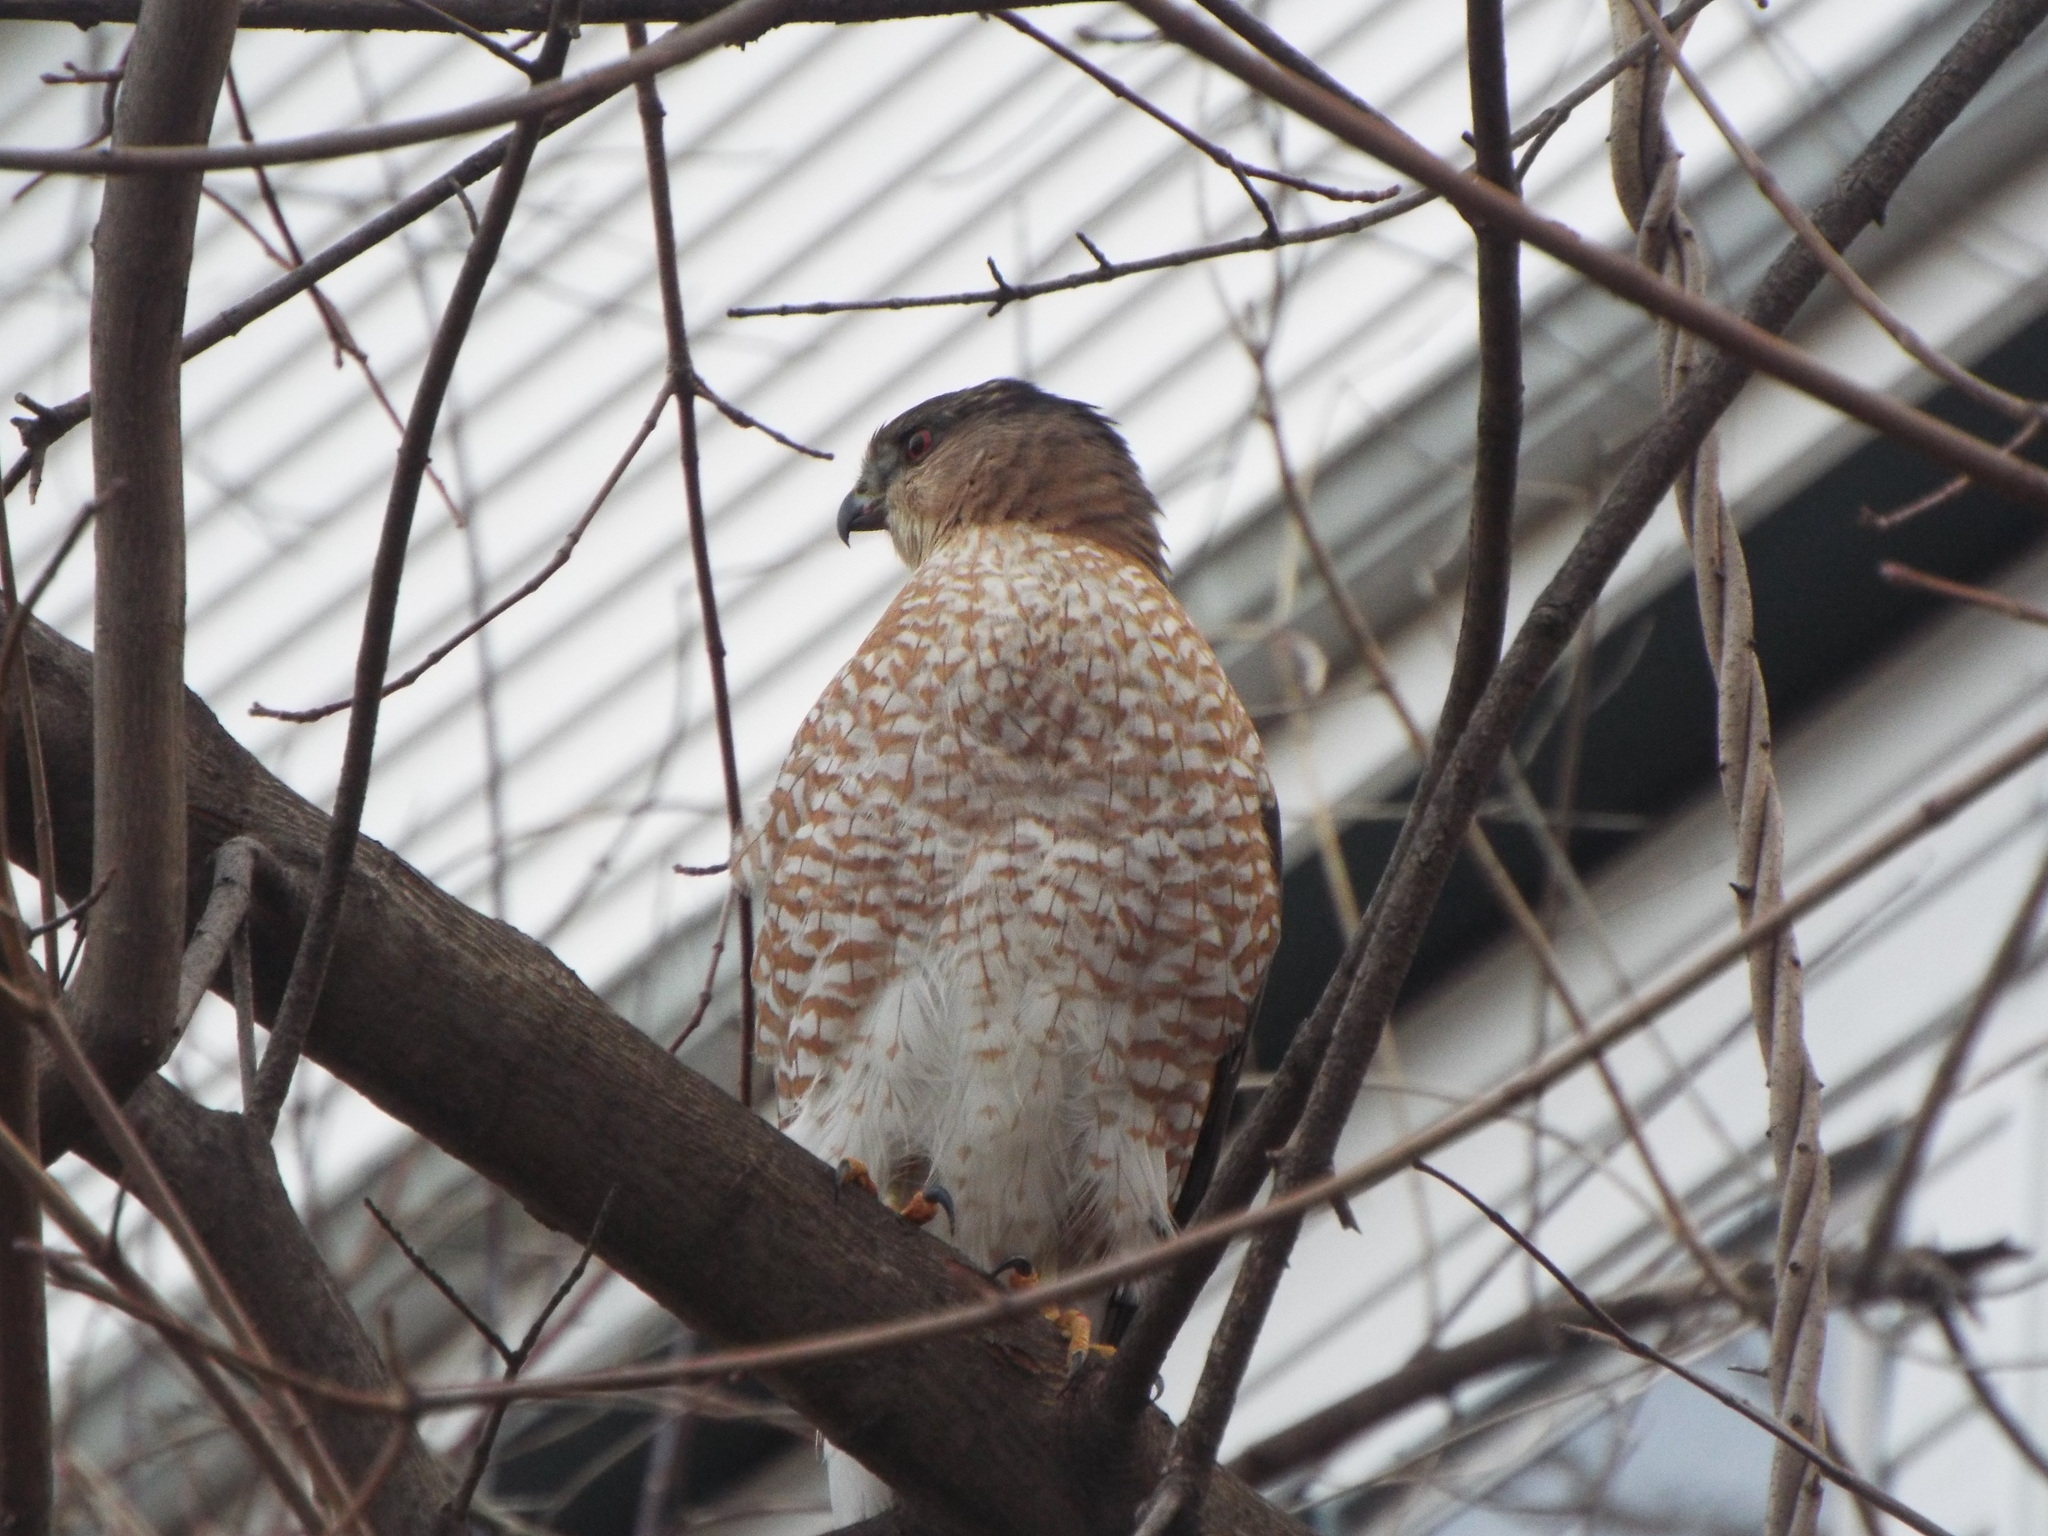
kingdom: Animalia
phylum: Chordata
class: Aves
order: Accipitriformes
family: Accipitridae
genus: Accipiter
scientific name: Accipiter cooperii
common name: Cooper's hawk
